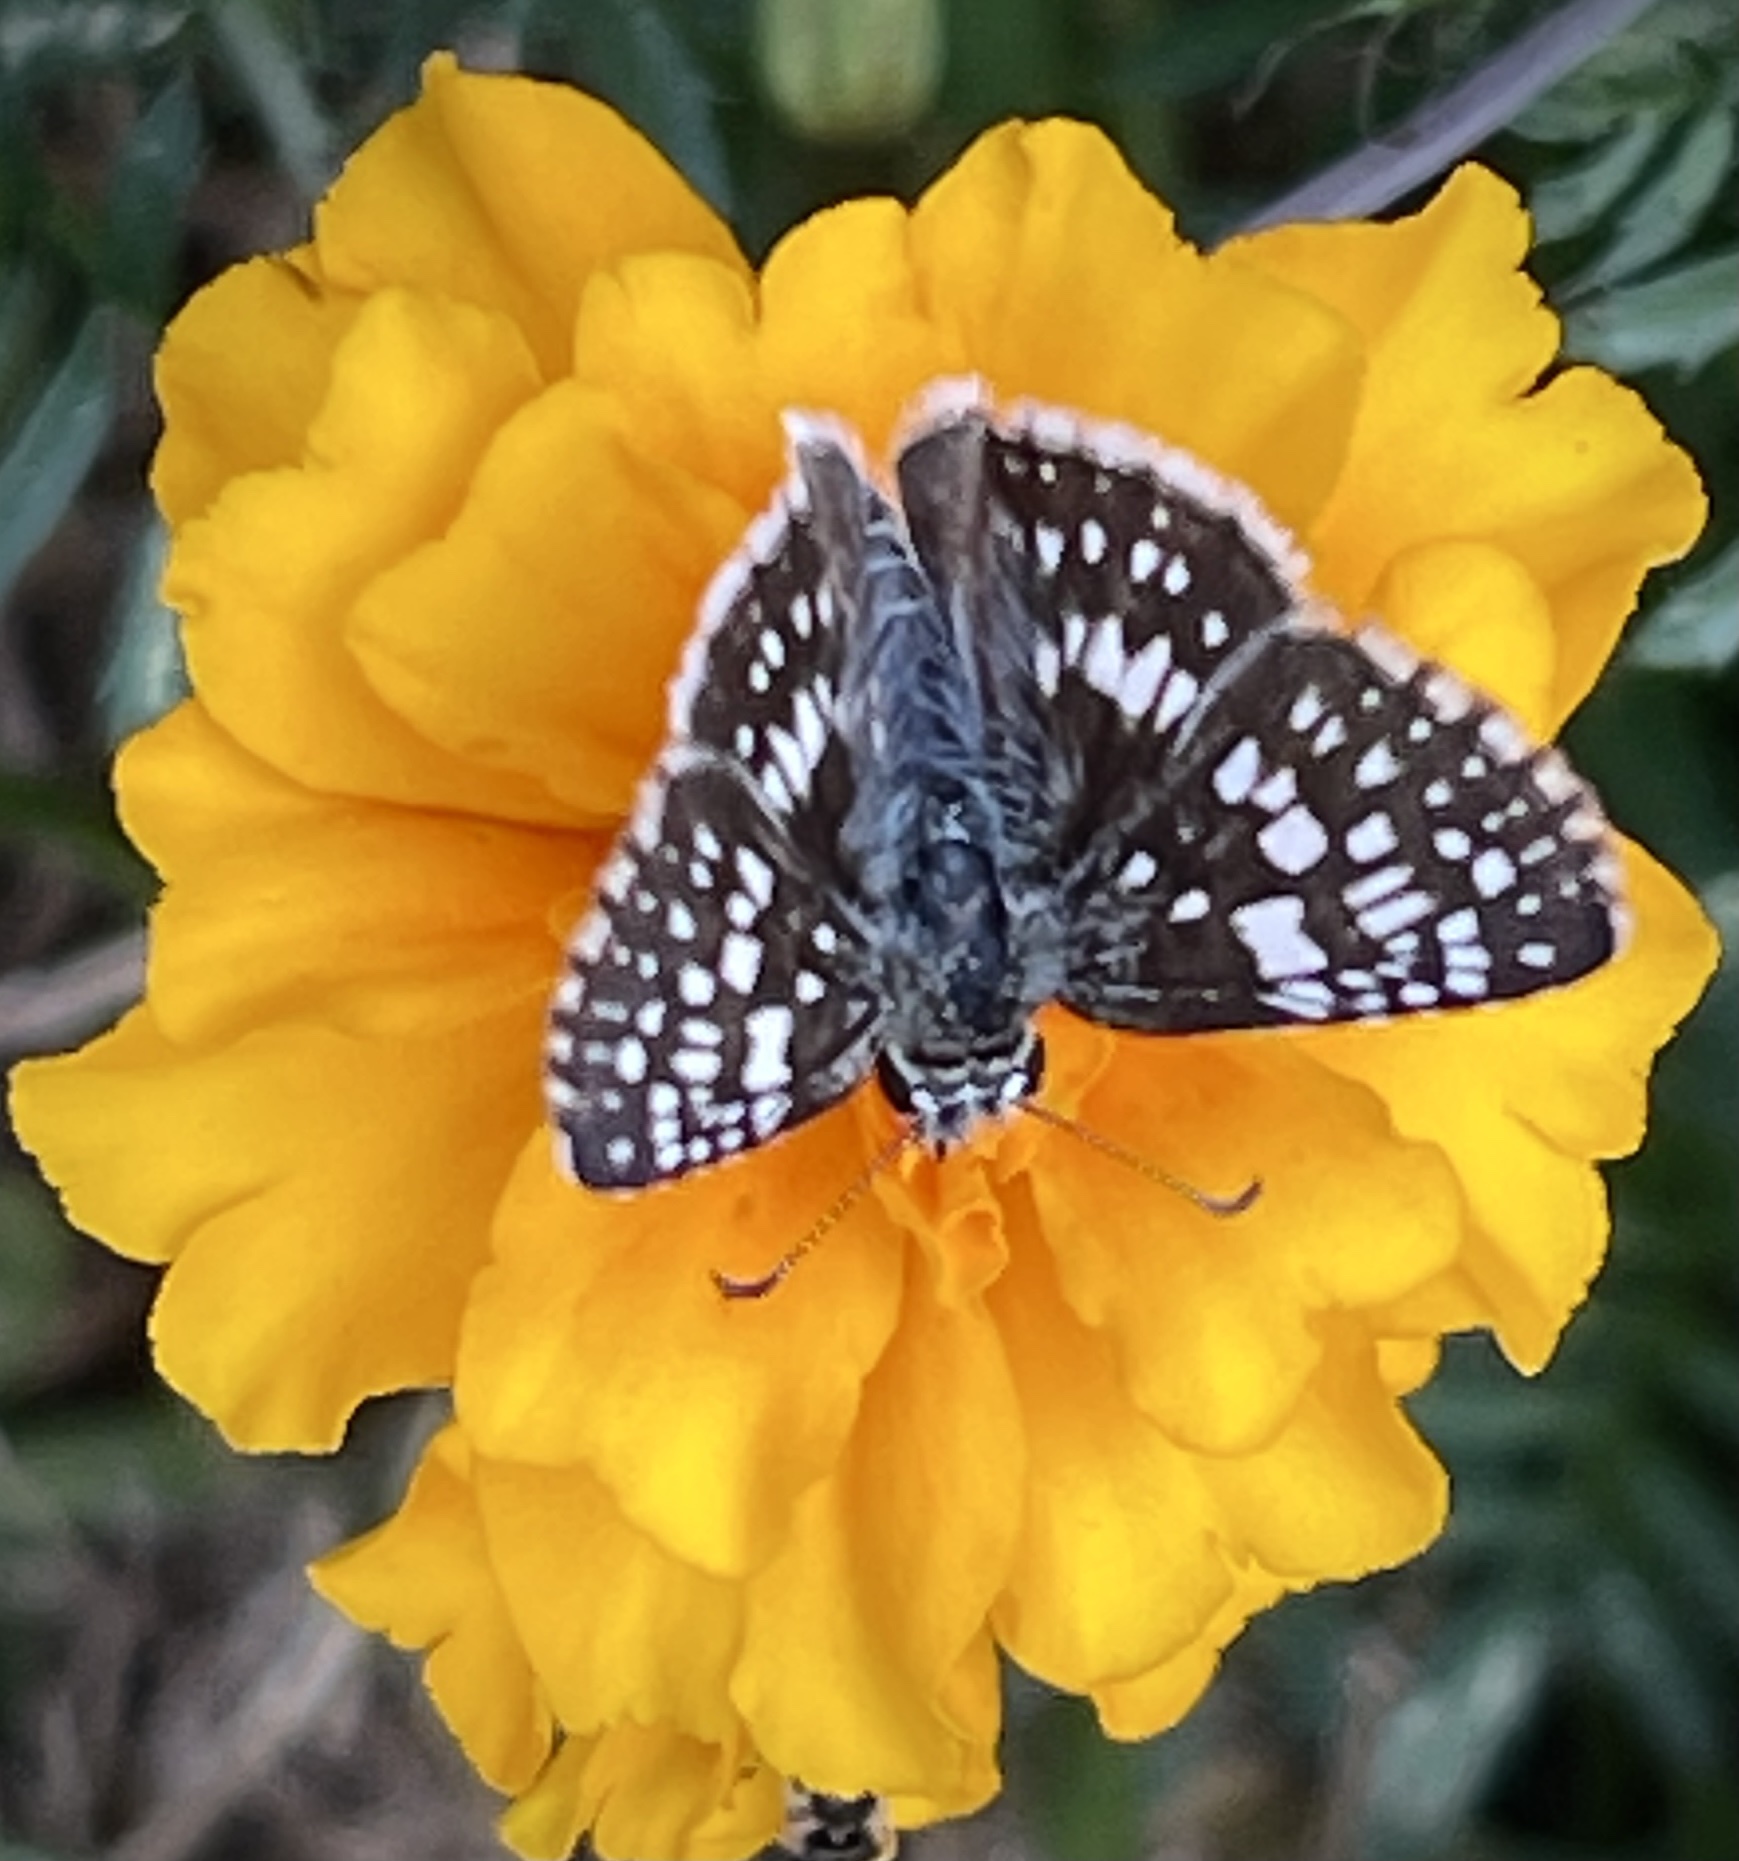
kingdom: Animalia
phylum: Arthropoda
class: Insecta
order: Lepidoptera
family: Hesperiidae
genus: Burnsius
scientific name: Burnsius communis
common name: Common checkered-skipper
